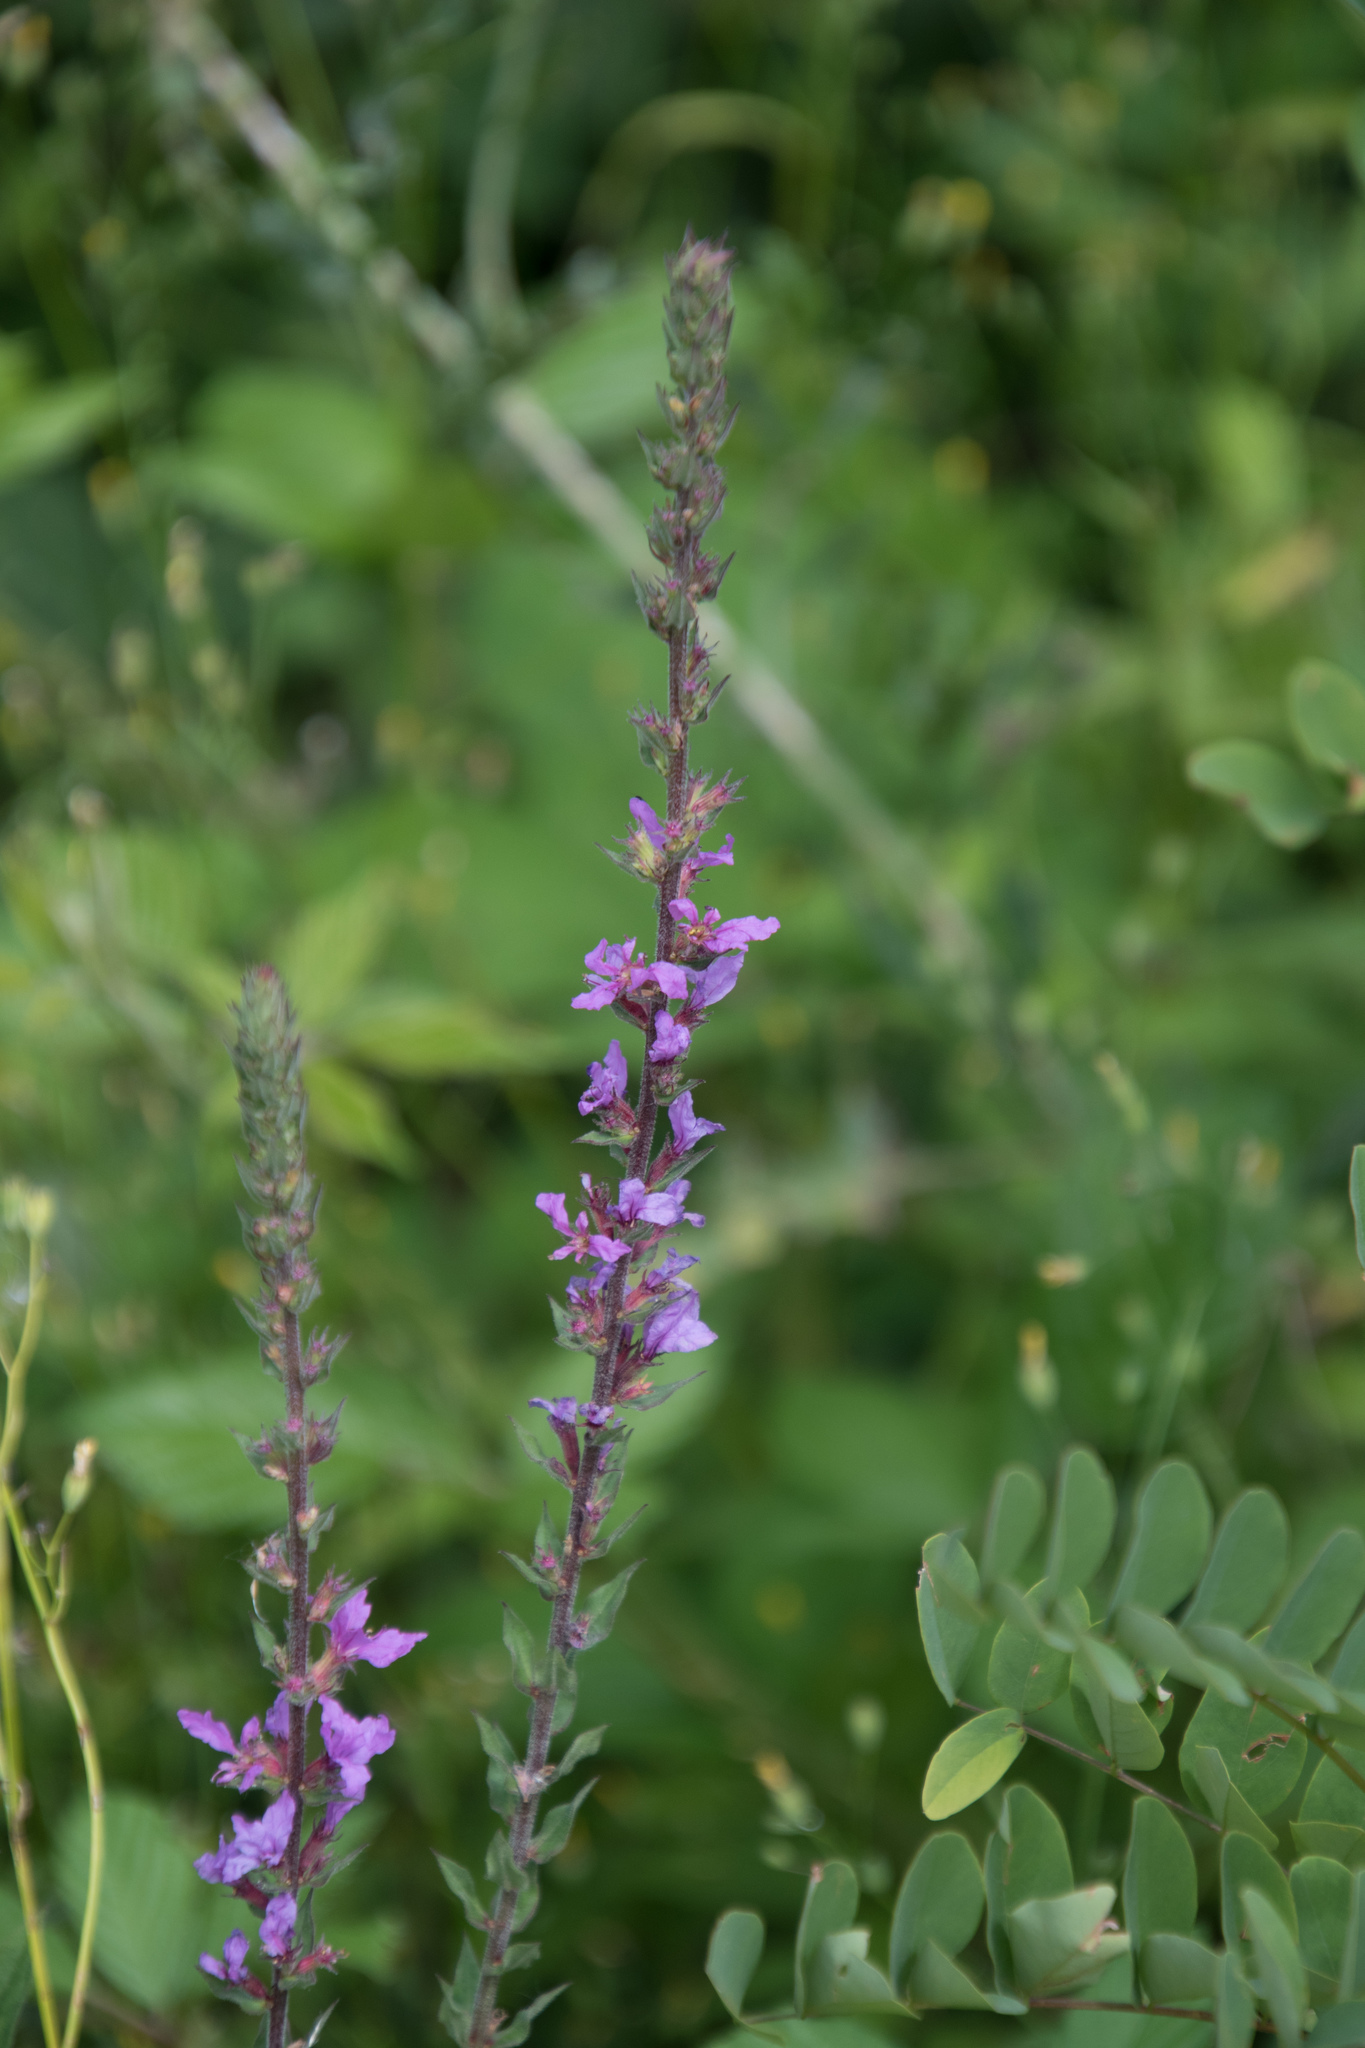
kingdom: Plantae
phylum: Tracheophyta
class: Magnoliopsida
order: Myrtales
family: Lythraceae
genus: Lythrum
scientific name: Lythrum salicaria
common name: Purple loosestrife
